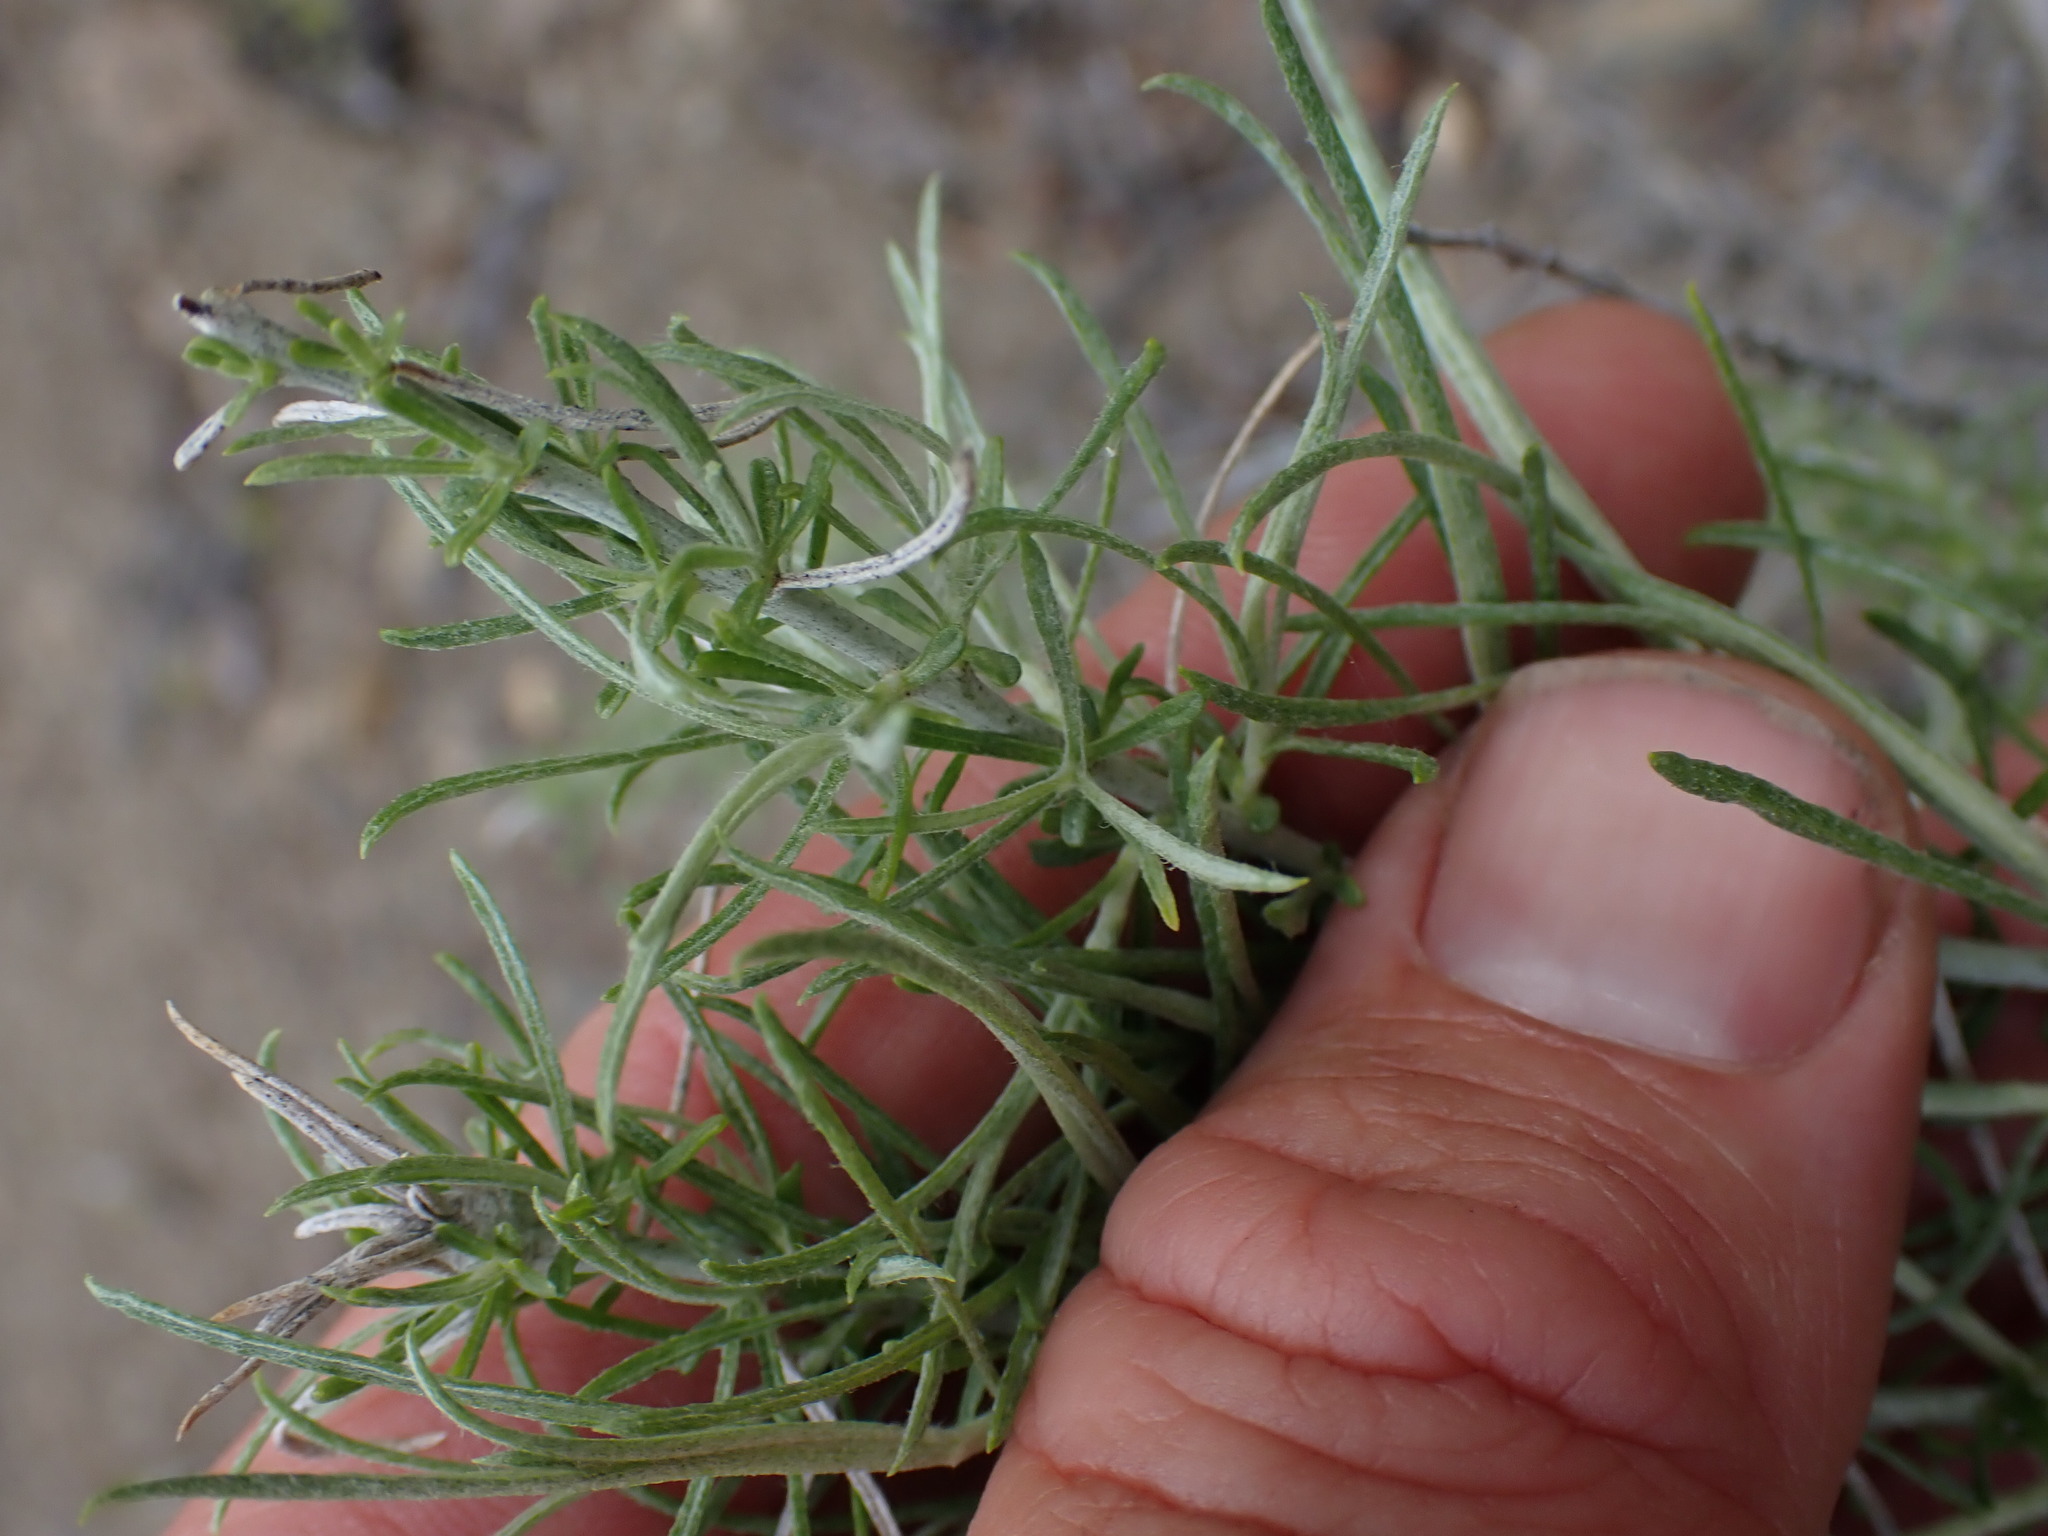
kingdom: Plantae
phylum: Tracheophyta
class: Magnoliopsida
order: Asterales
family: Asteraceae
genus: Ericameria
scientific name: Ericameria nauseosa
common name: Rubber rabbitbrush
